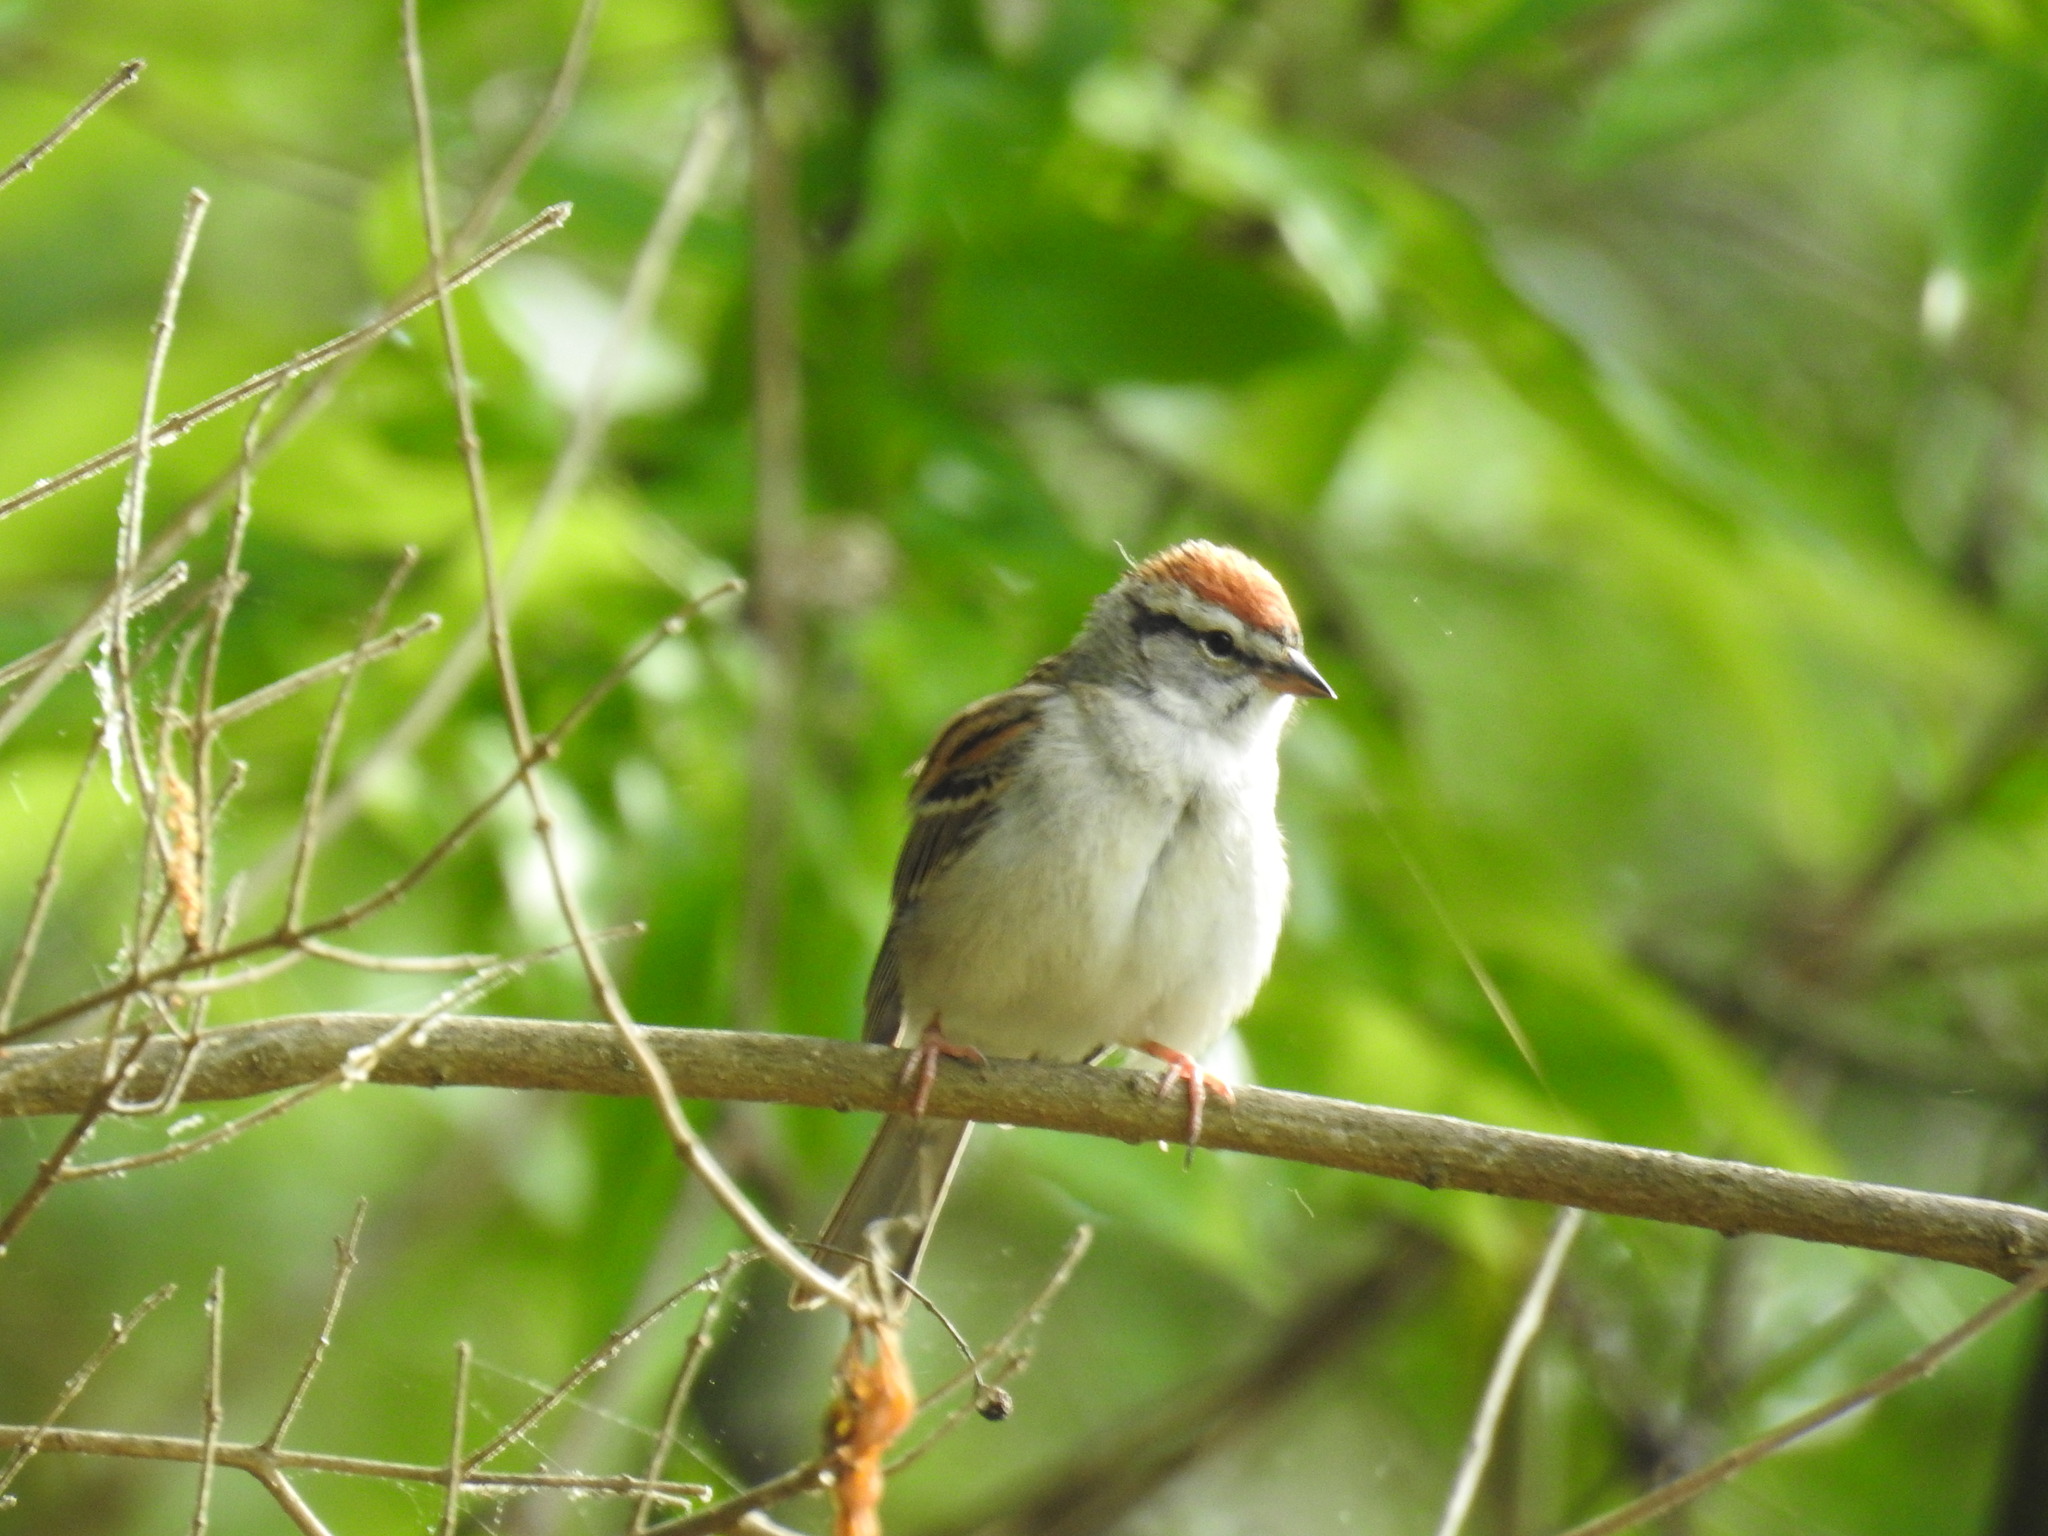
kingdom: Animalia
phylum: Chordata
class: Aves
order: Passeriformes
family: Passerellidae
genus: Spizella
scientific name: Spizella passerina
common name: Chipping sparrow
